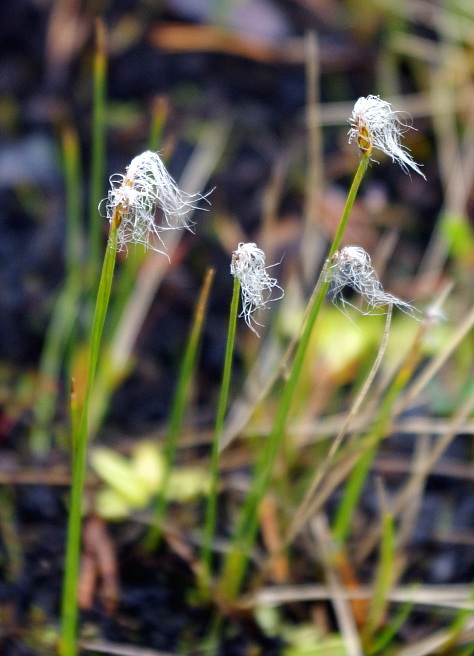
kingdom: Plantae
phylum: Tracheophyta
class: Liliopsida
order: Poales
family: Cyperaceae
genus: Trichophorum
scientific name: Trichophorum alpinum
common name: Alpine bulrush
